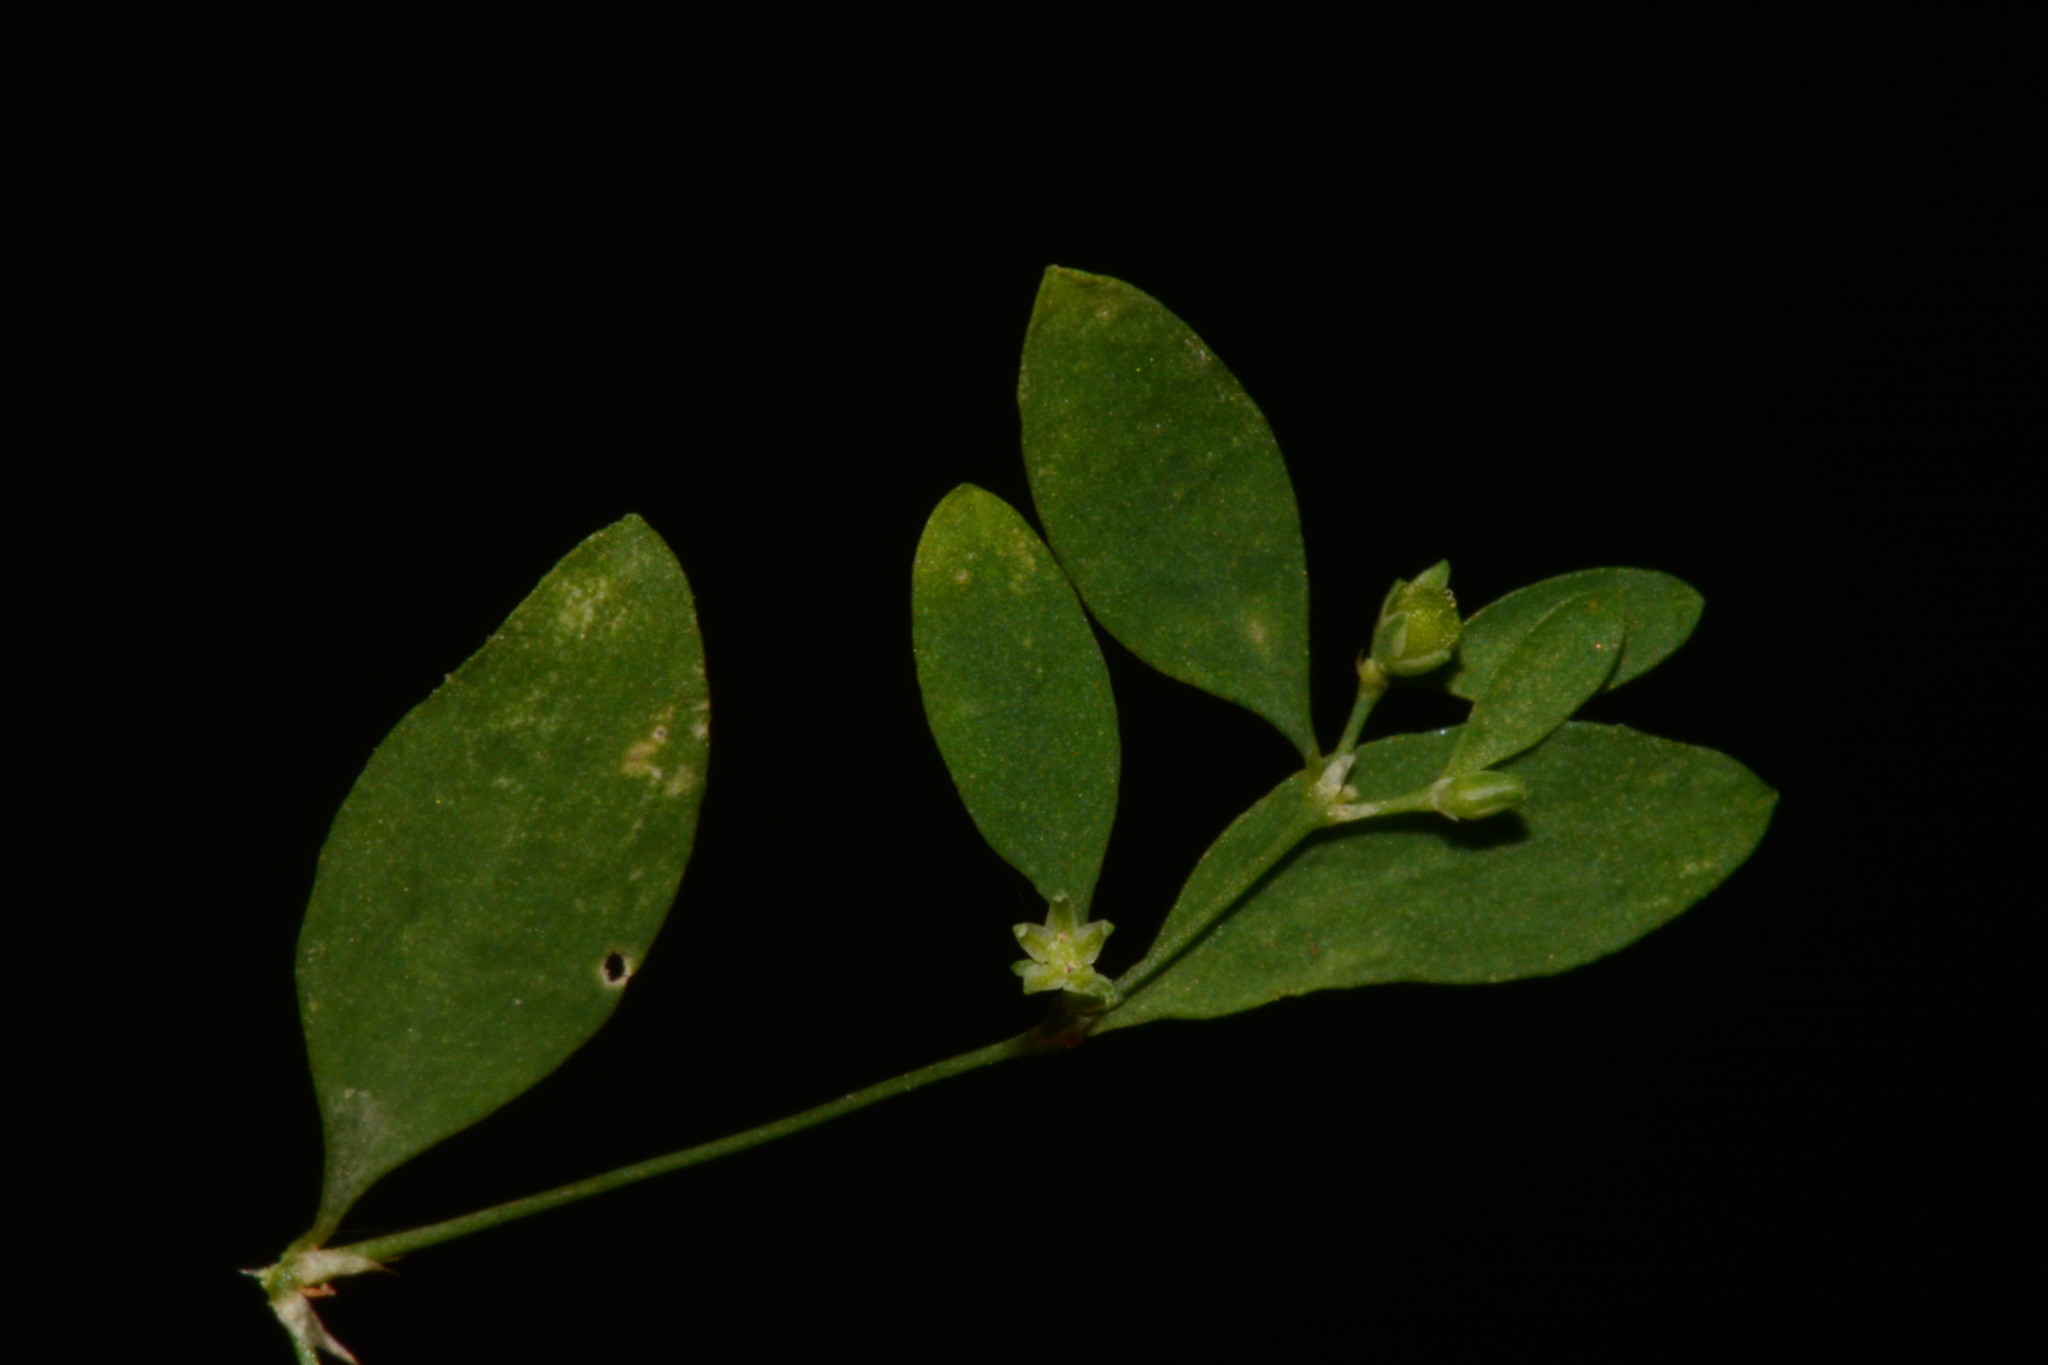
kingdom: Plantae
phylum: Tracheophyta
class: Magnoliopsida
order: Caryophyllales
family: Caryophyllaceae
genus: Paronychia
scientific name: Paronychia canadensis
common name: Canada forked nailwort
